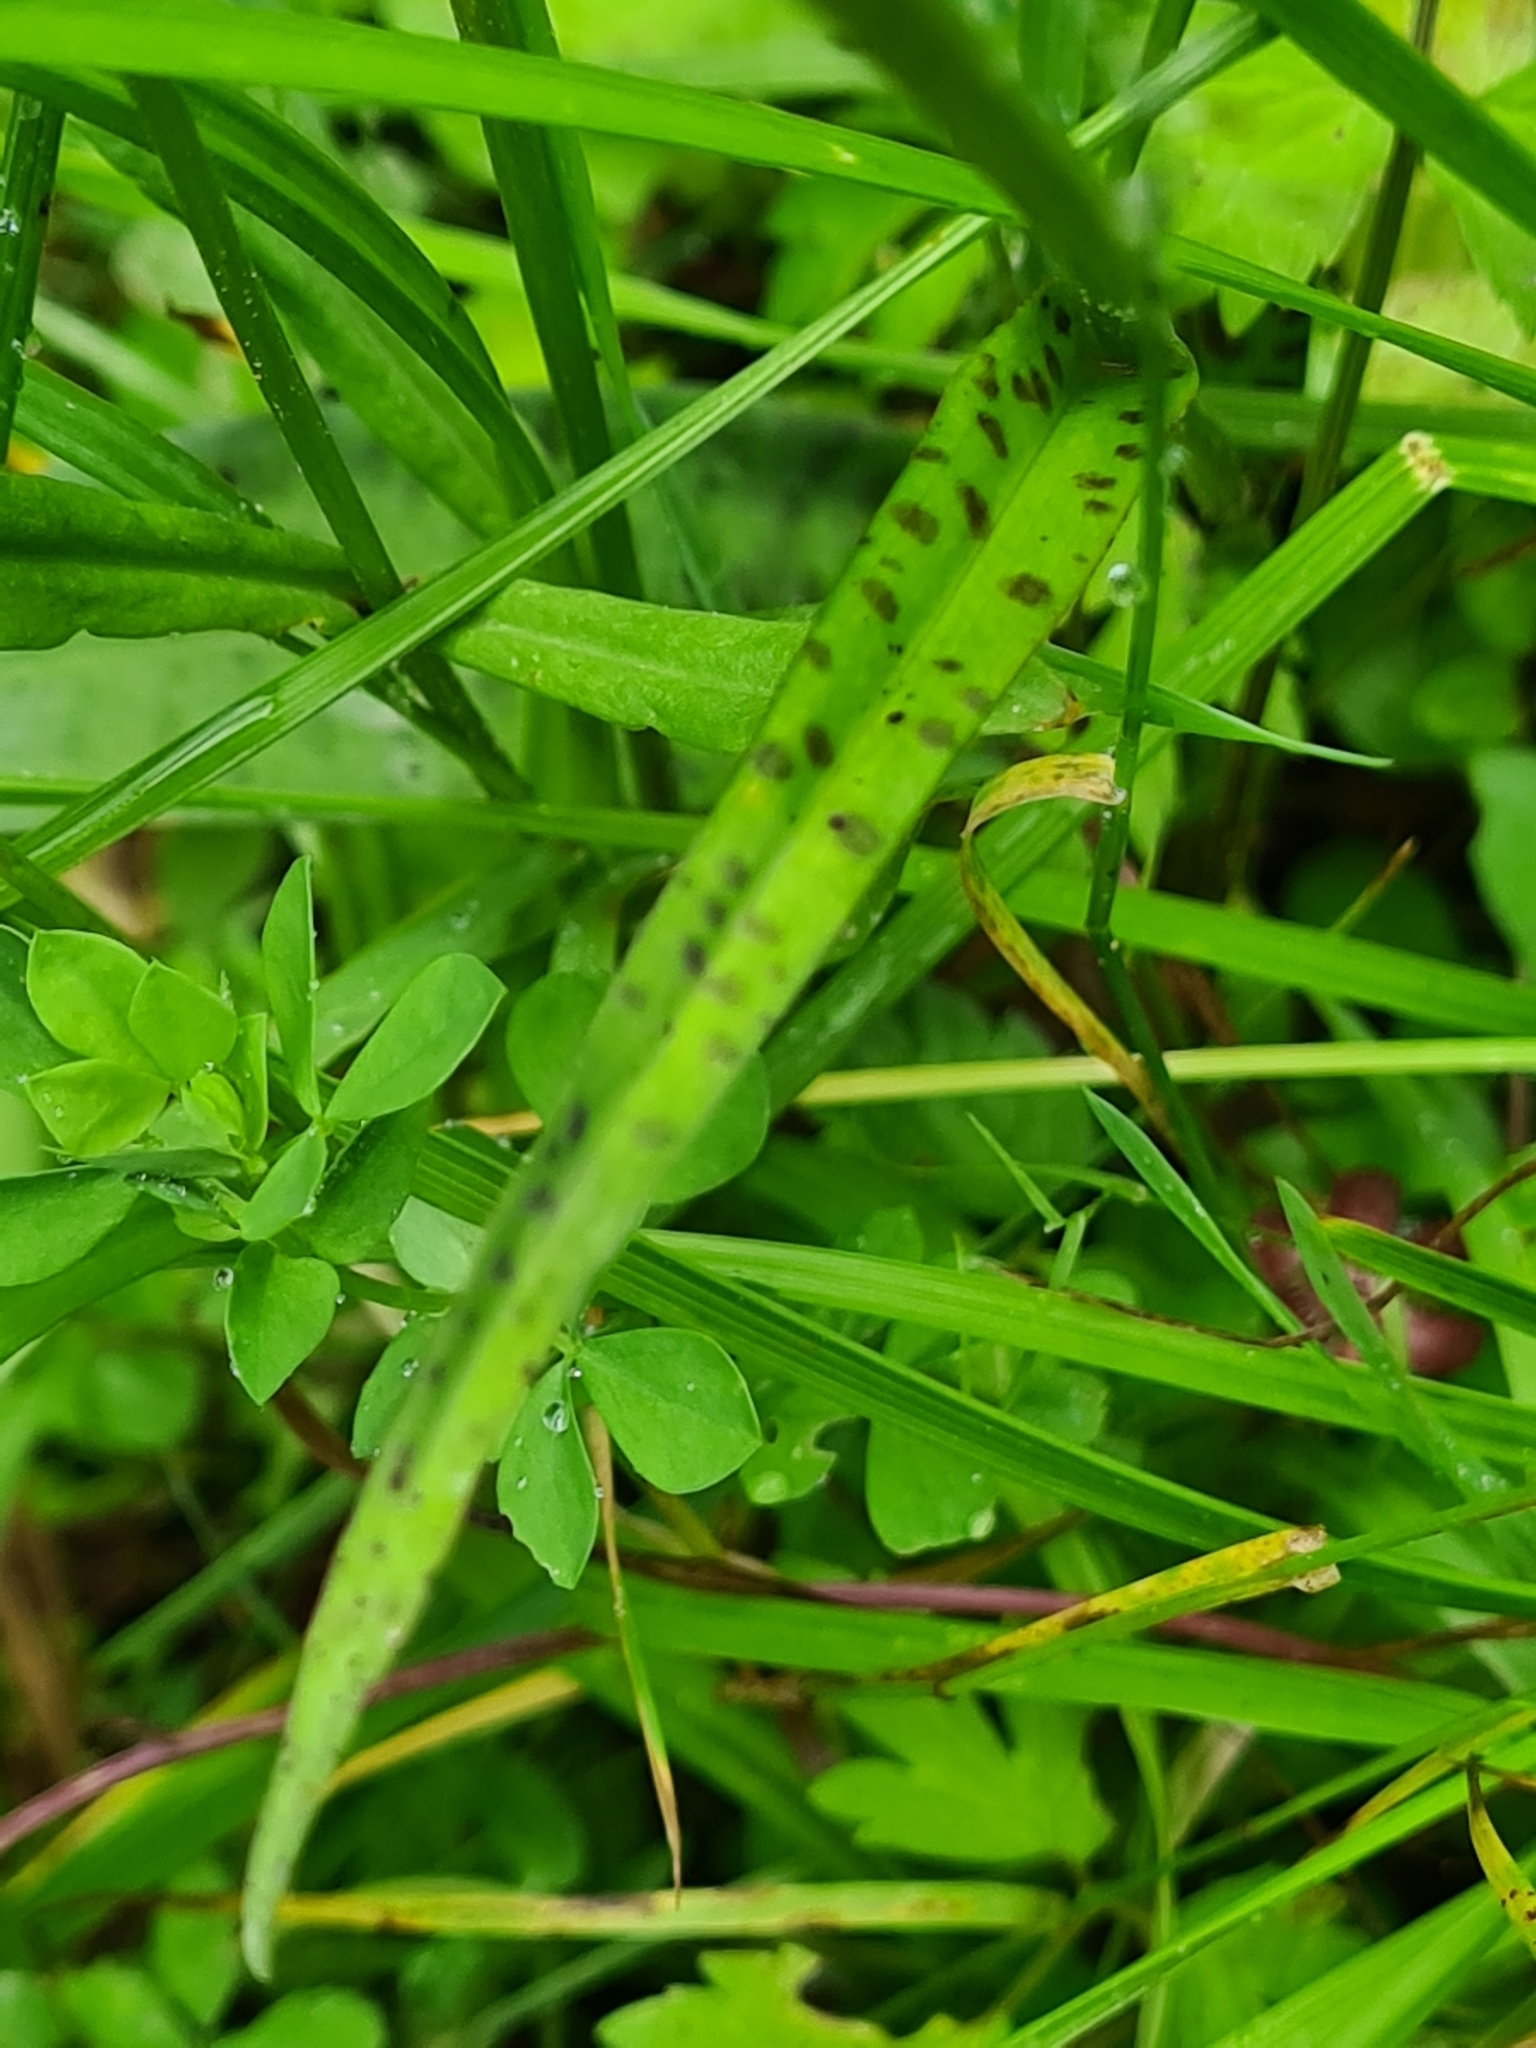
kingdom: Plantae
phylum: Tracheophyta
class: Liliopsida
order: Asparagales
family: Orchidaceae
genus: Dactylorhiza
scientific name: Dactylorhiza maculata
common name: Heath spotted-orchid
